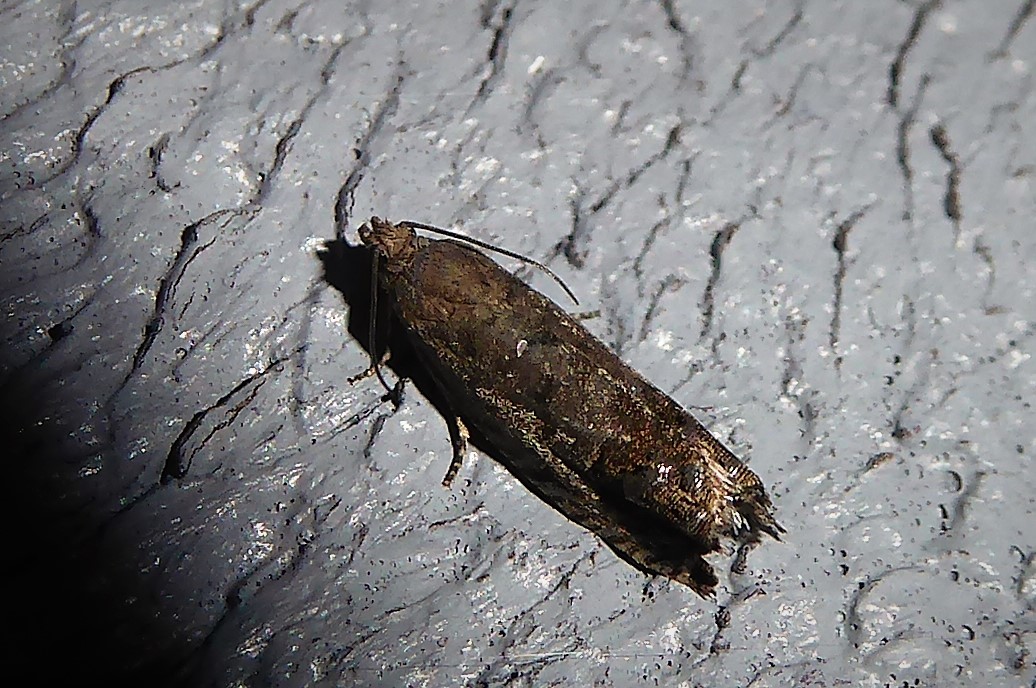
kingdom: Animalia
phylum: Arthropoda
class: Insecta
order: Lepidoptera
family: Tortricidae
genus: Cydia
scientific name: Cydia succedana
